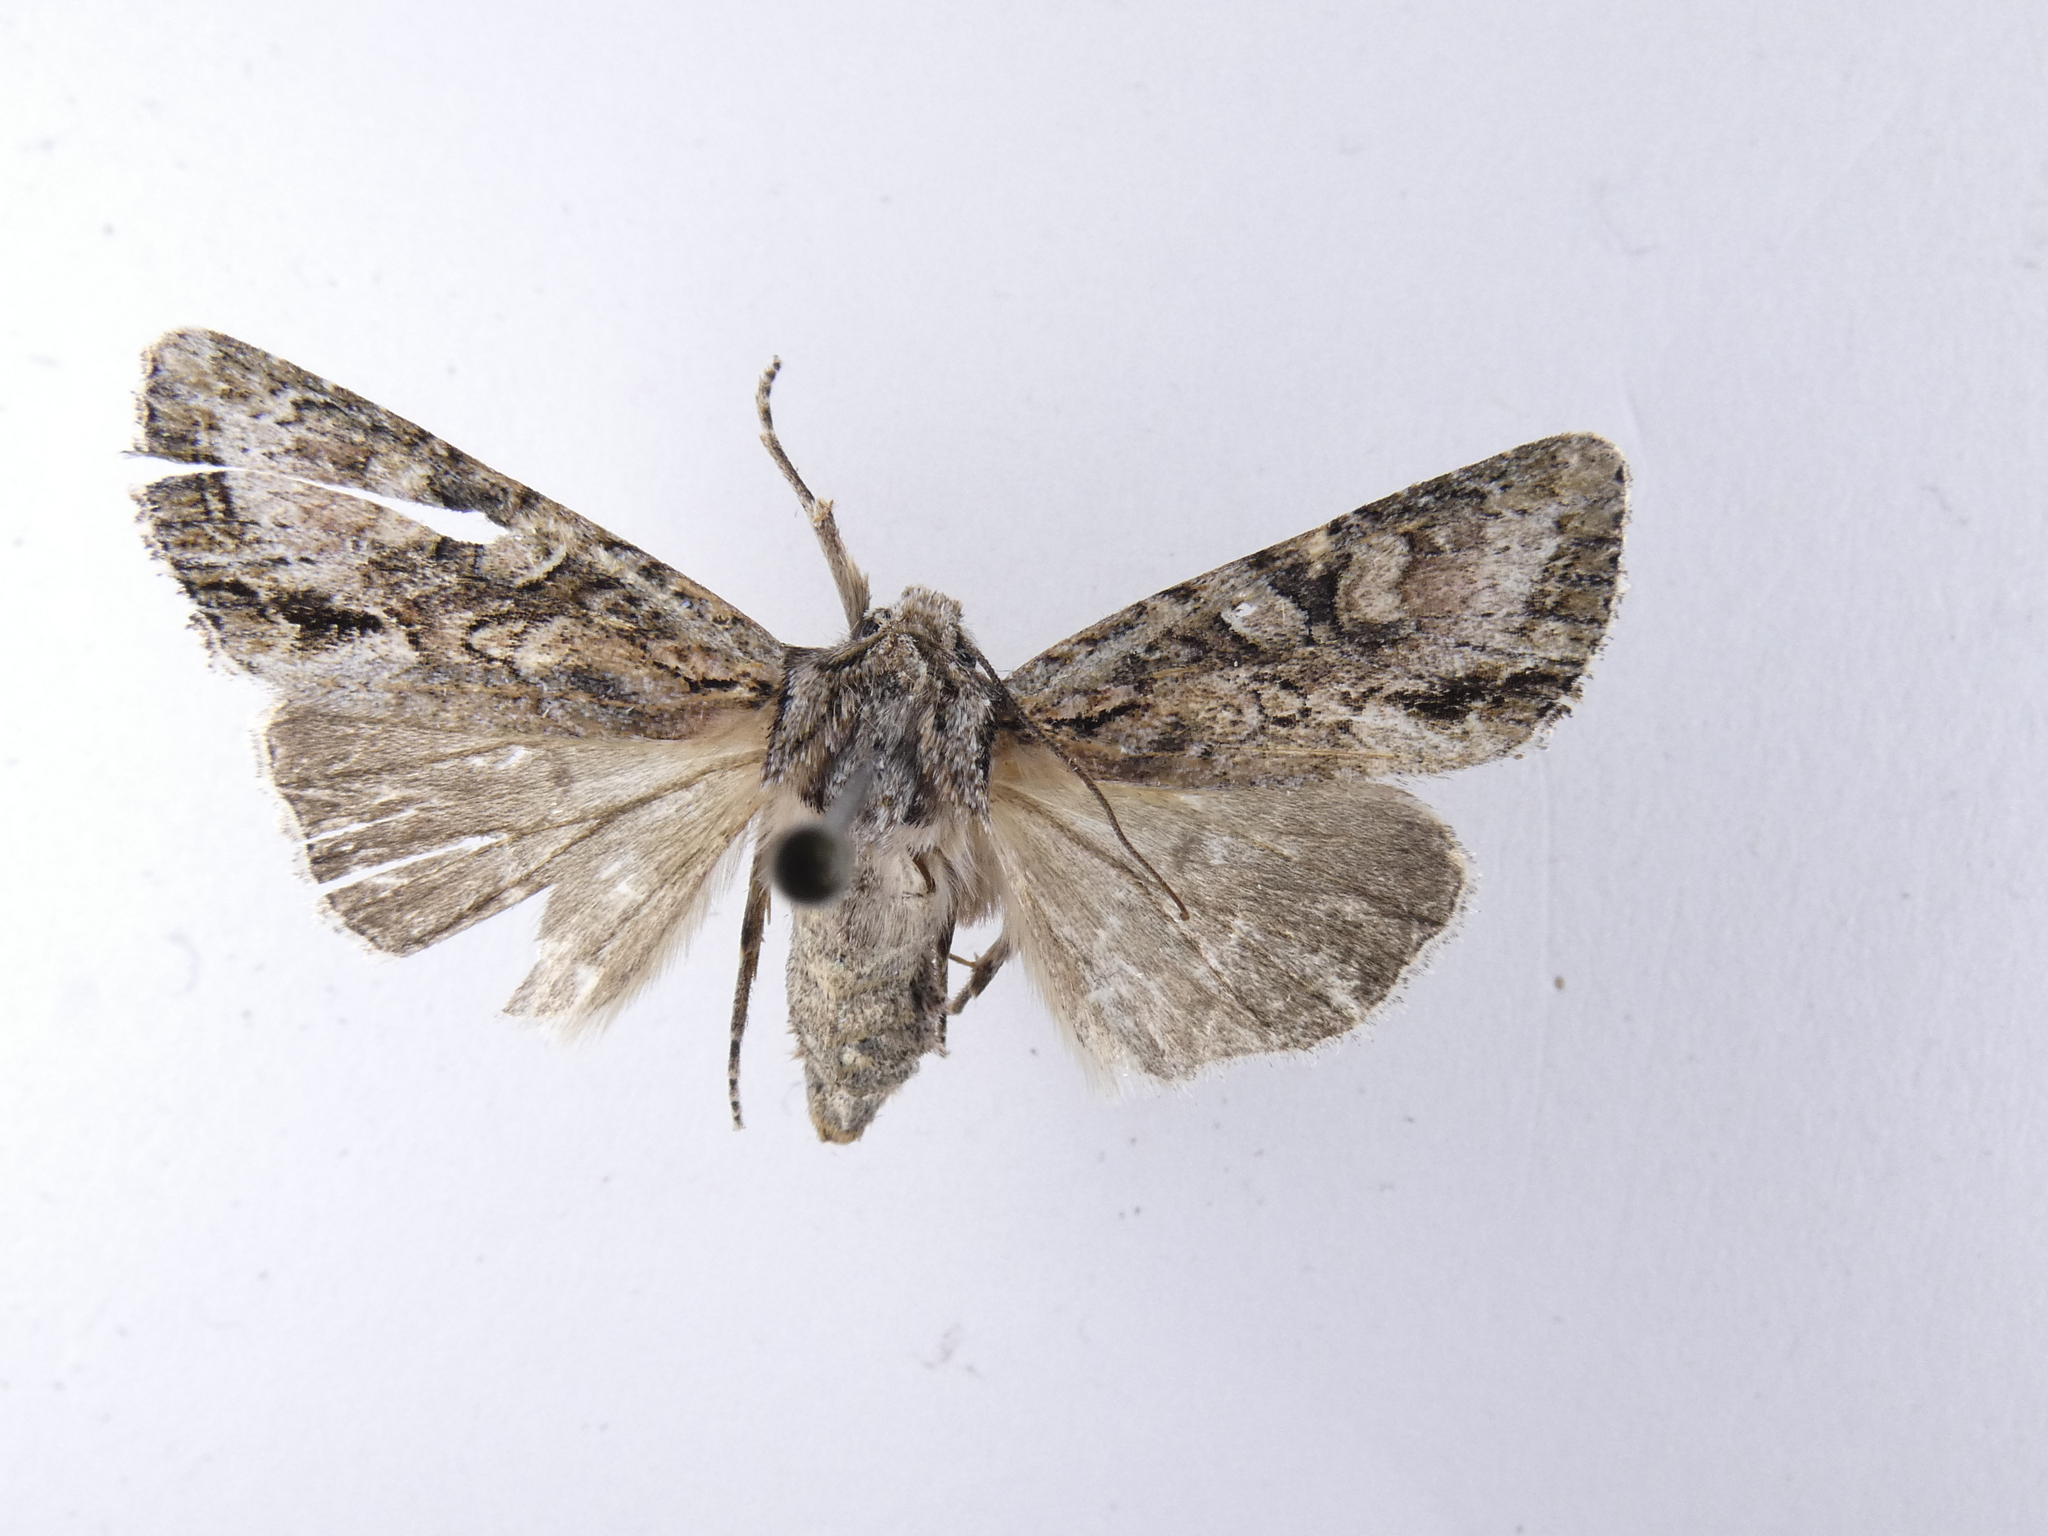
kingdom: Animalia
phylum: Arthropoda
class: Insecta
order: Lepidoptera
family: Noctuidae
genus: Ichneutica
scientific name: Ichneutica mutans
